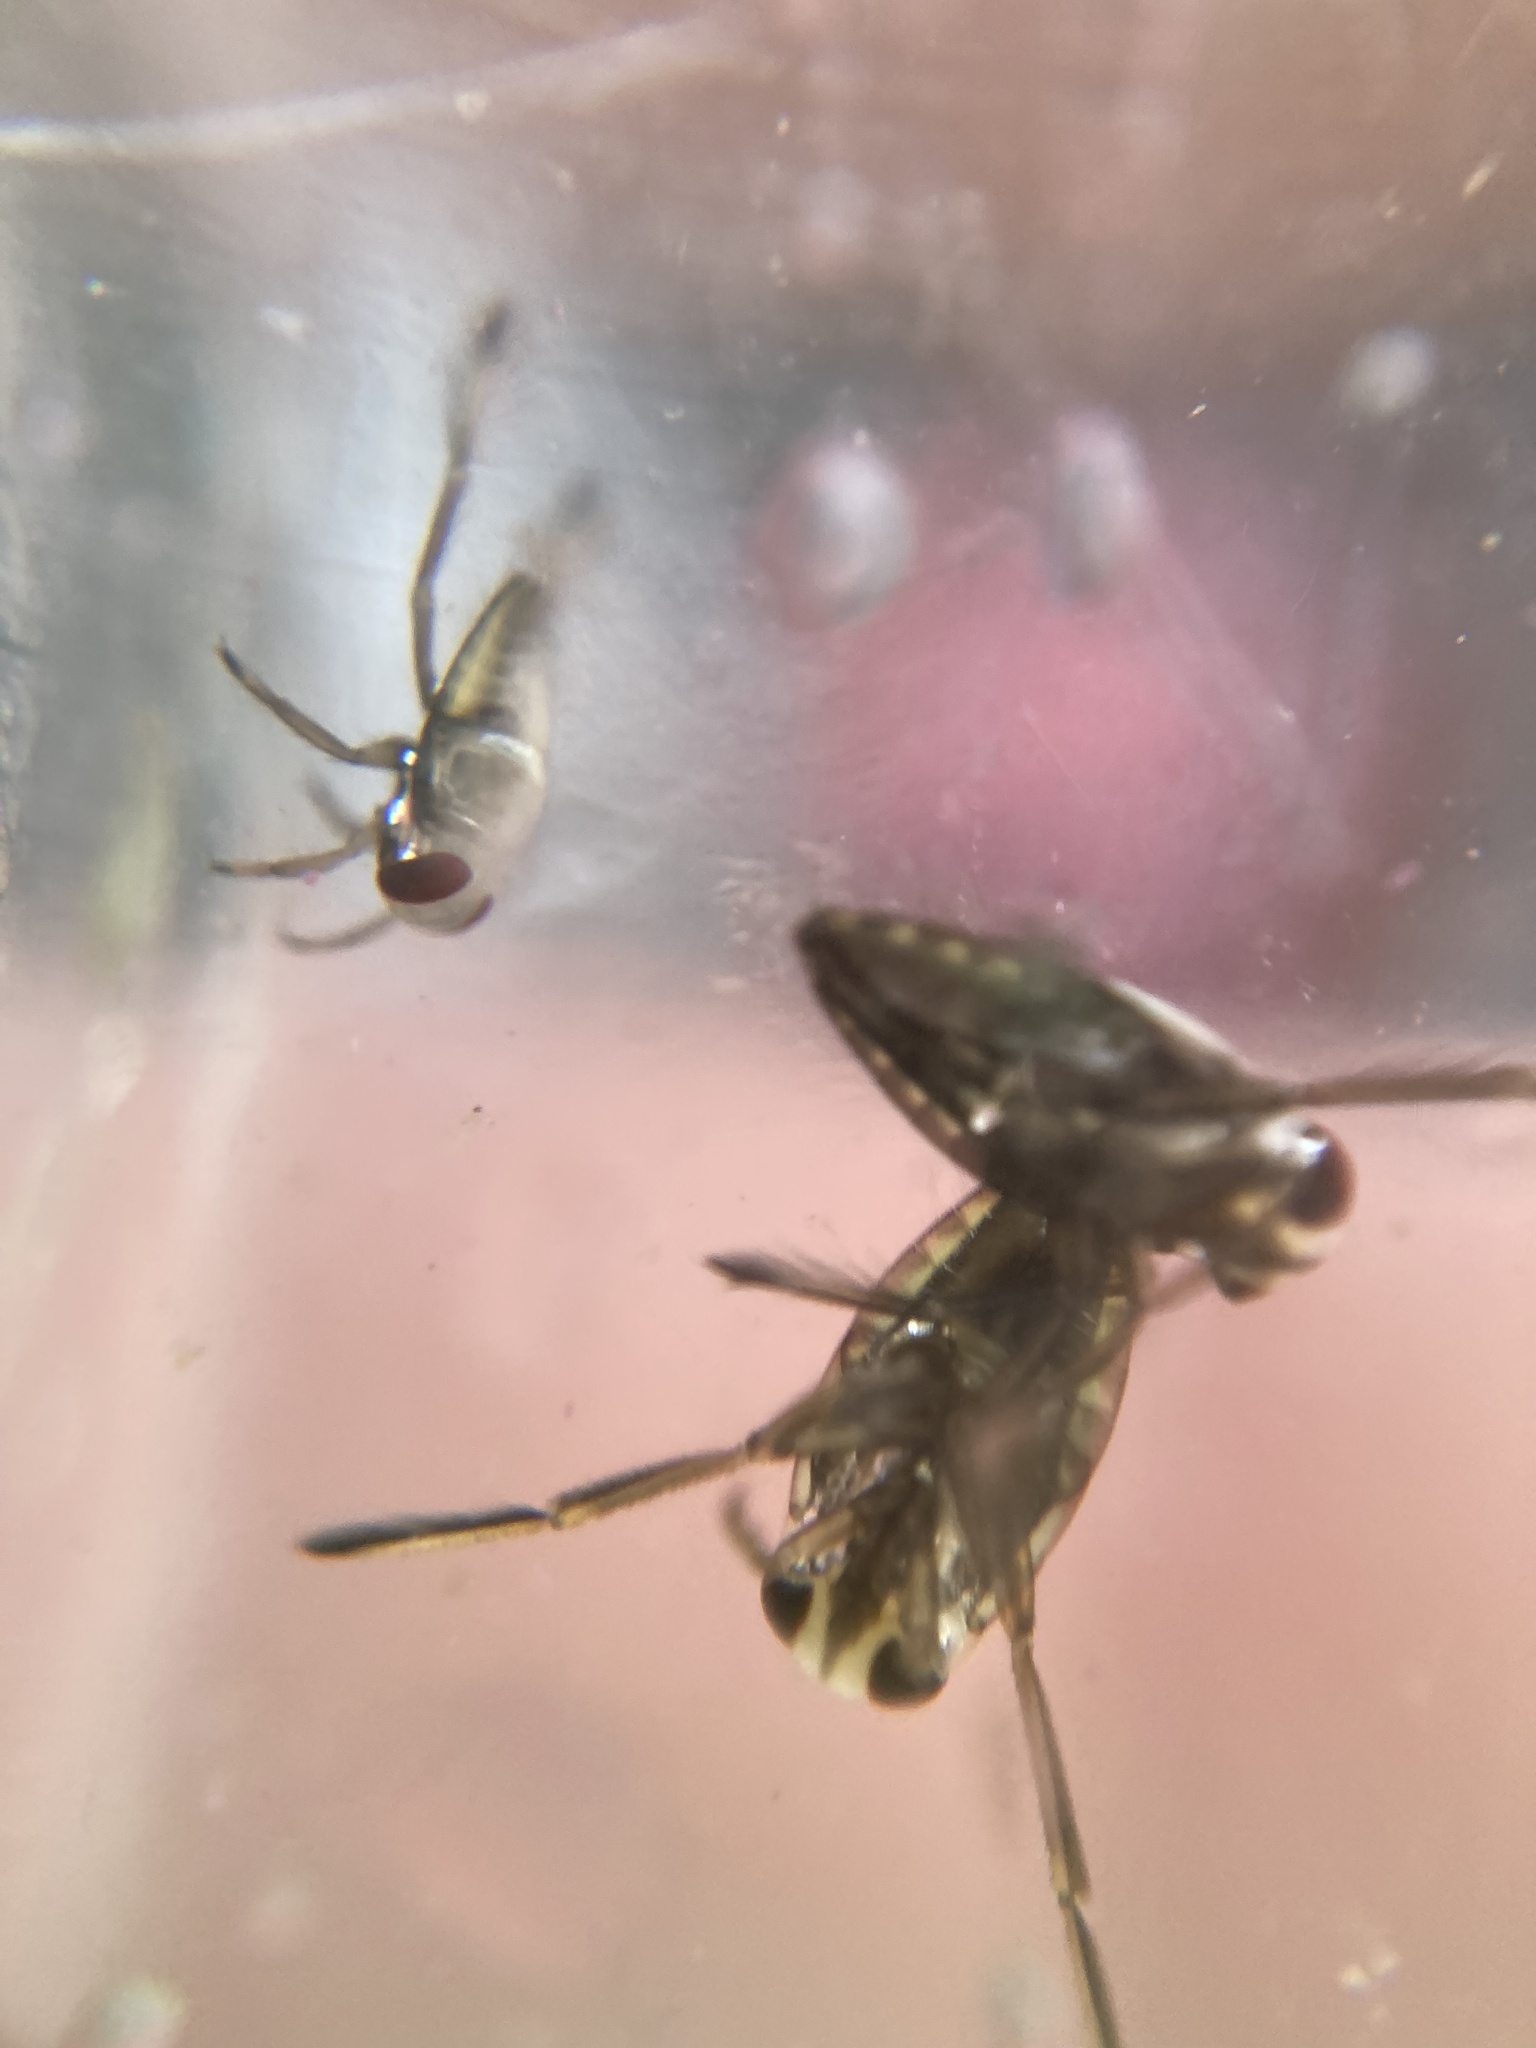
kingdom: Animalia
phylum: Arthropoda
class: Insecta
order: Hemiptera
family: Notonectidae
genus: Notonecta
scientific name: Notonecta
